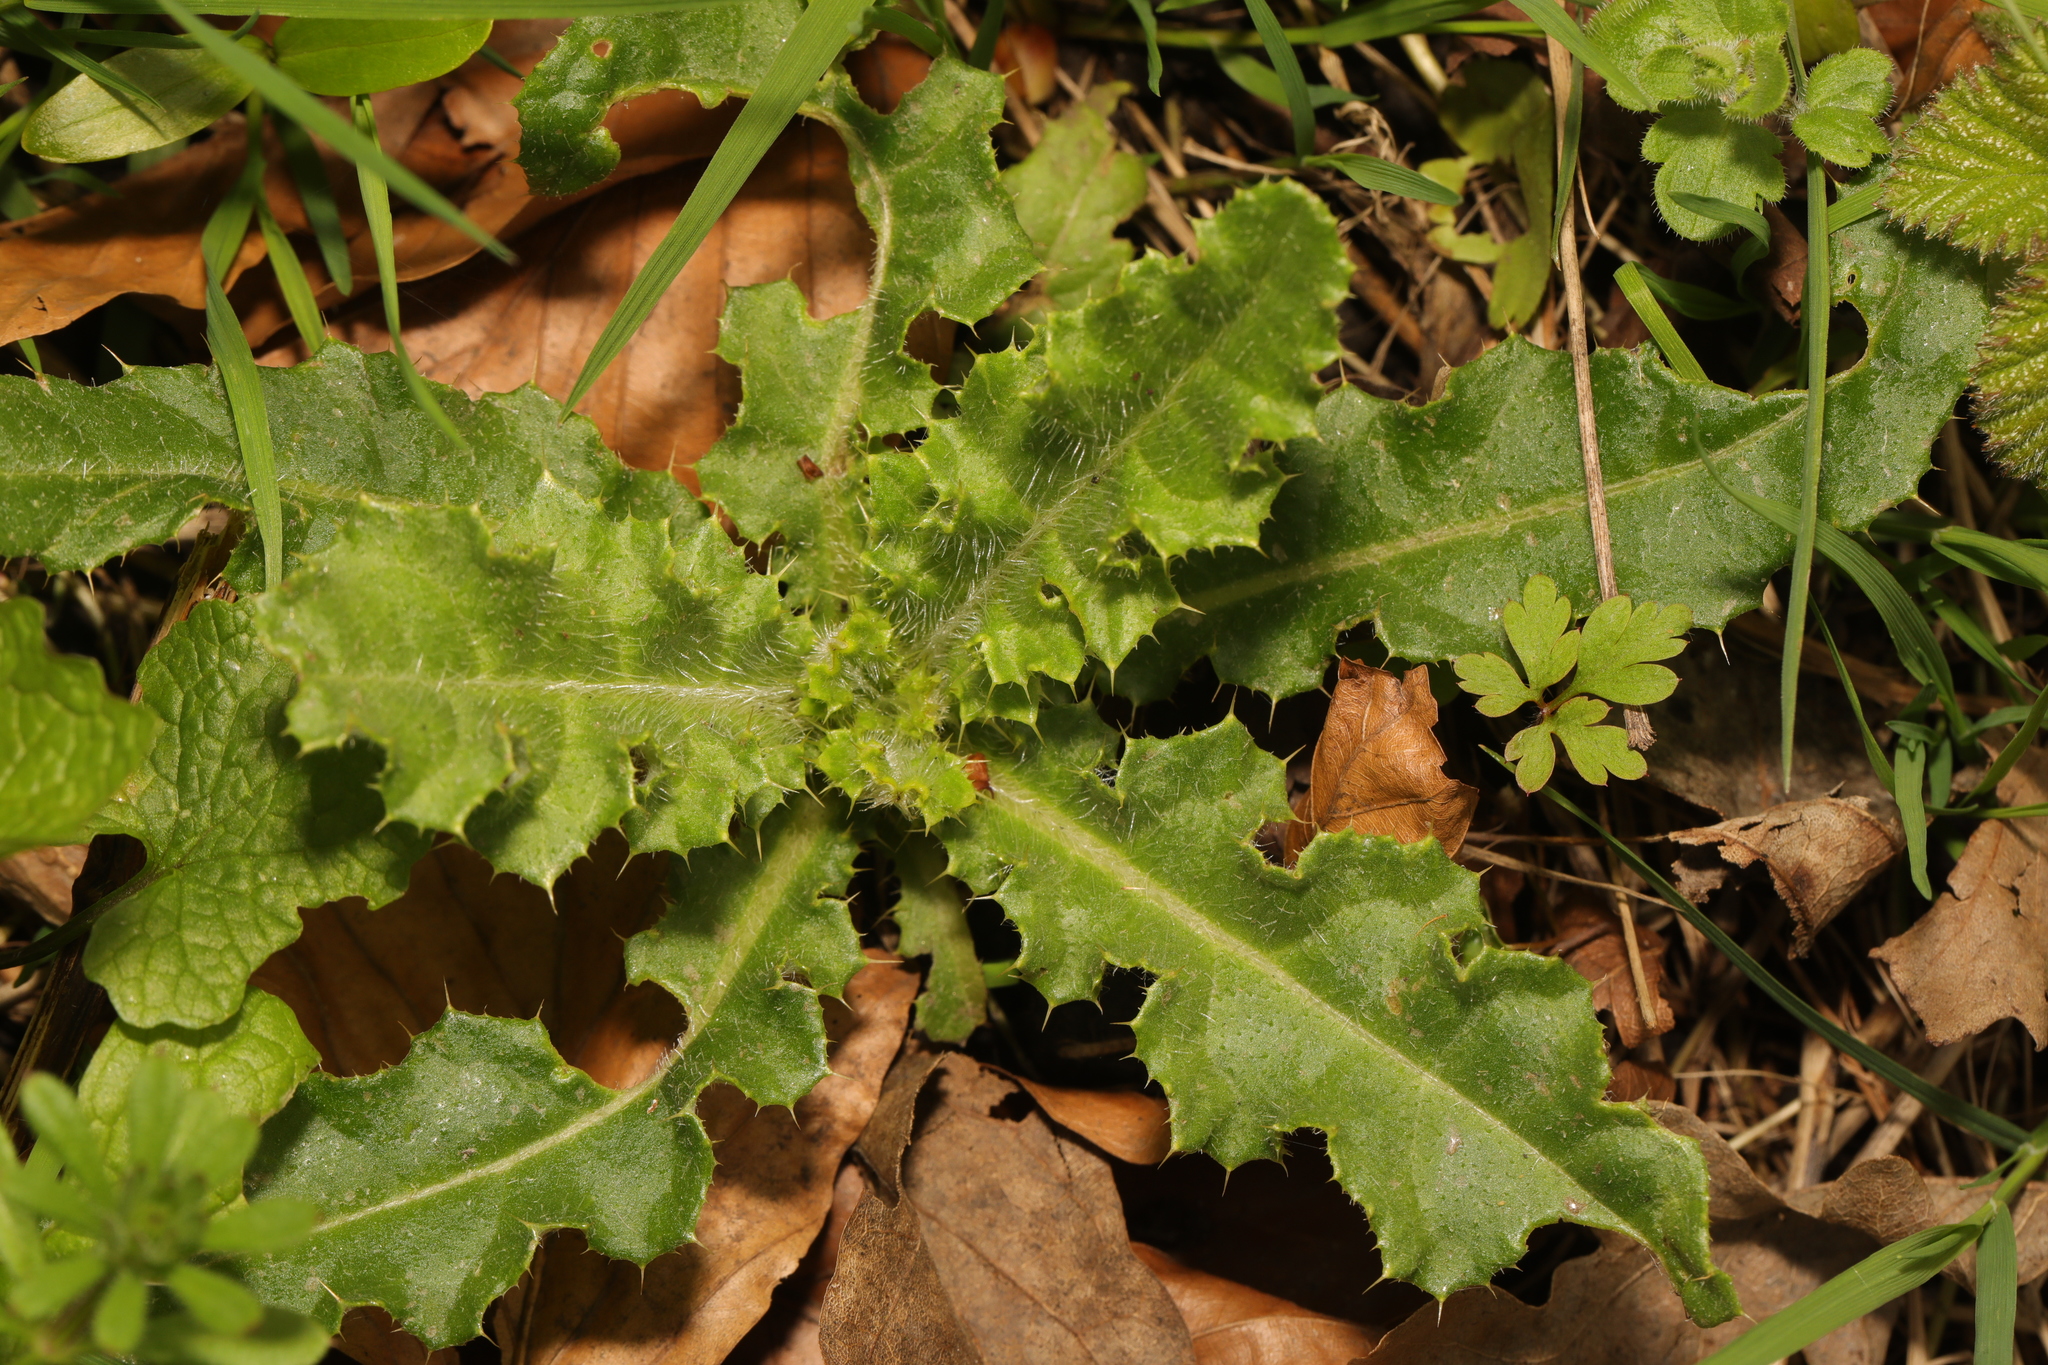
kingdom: Plantae
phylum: Tracheophyta
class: Magnoliopsida
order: Asterales
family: Asteraceae
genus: Cirsium
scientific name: Cirsium arvense
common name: Creeping thistle
